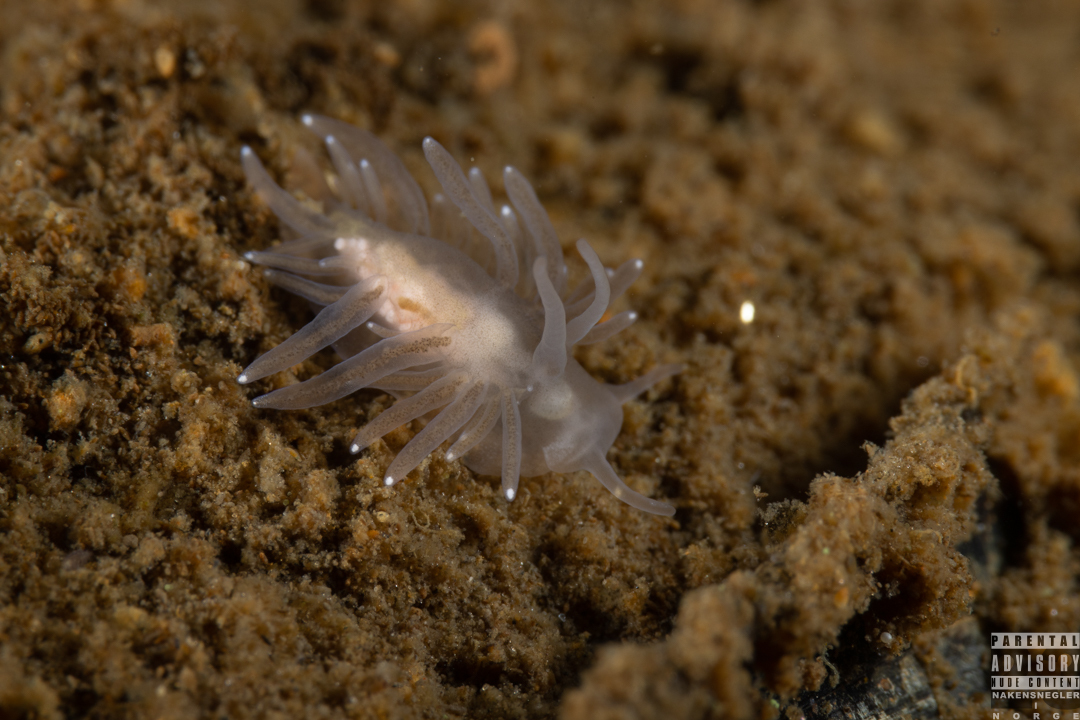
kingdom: Animalia
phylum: Mollusca
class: Gastropoda
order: Nudibranchia
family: Cuthonidae
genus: Bohuslania
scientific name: Bohuslania matsmichaeli
